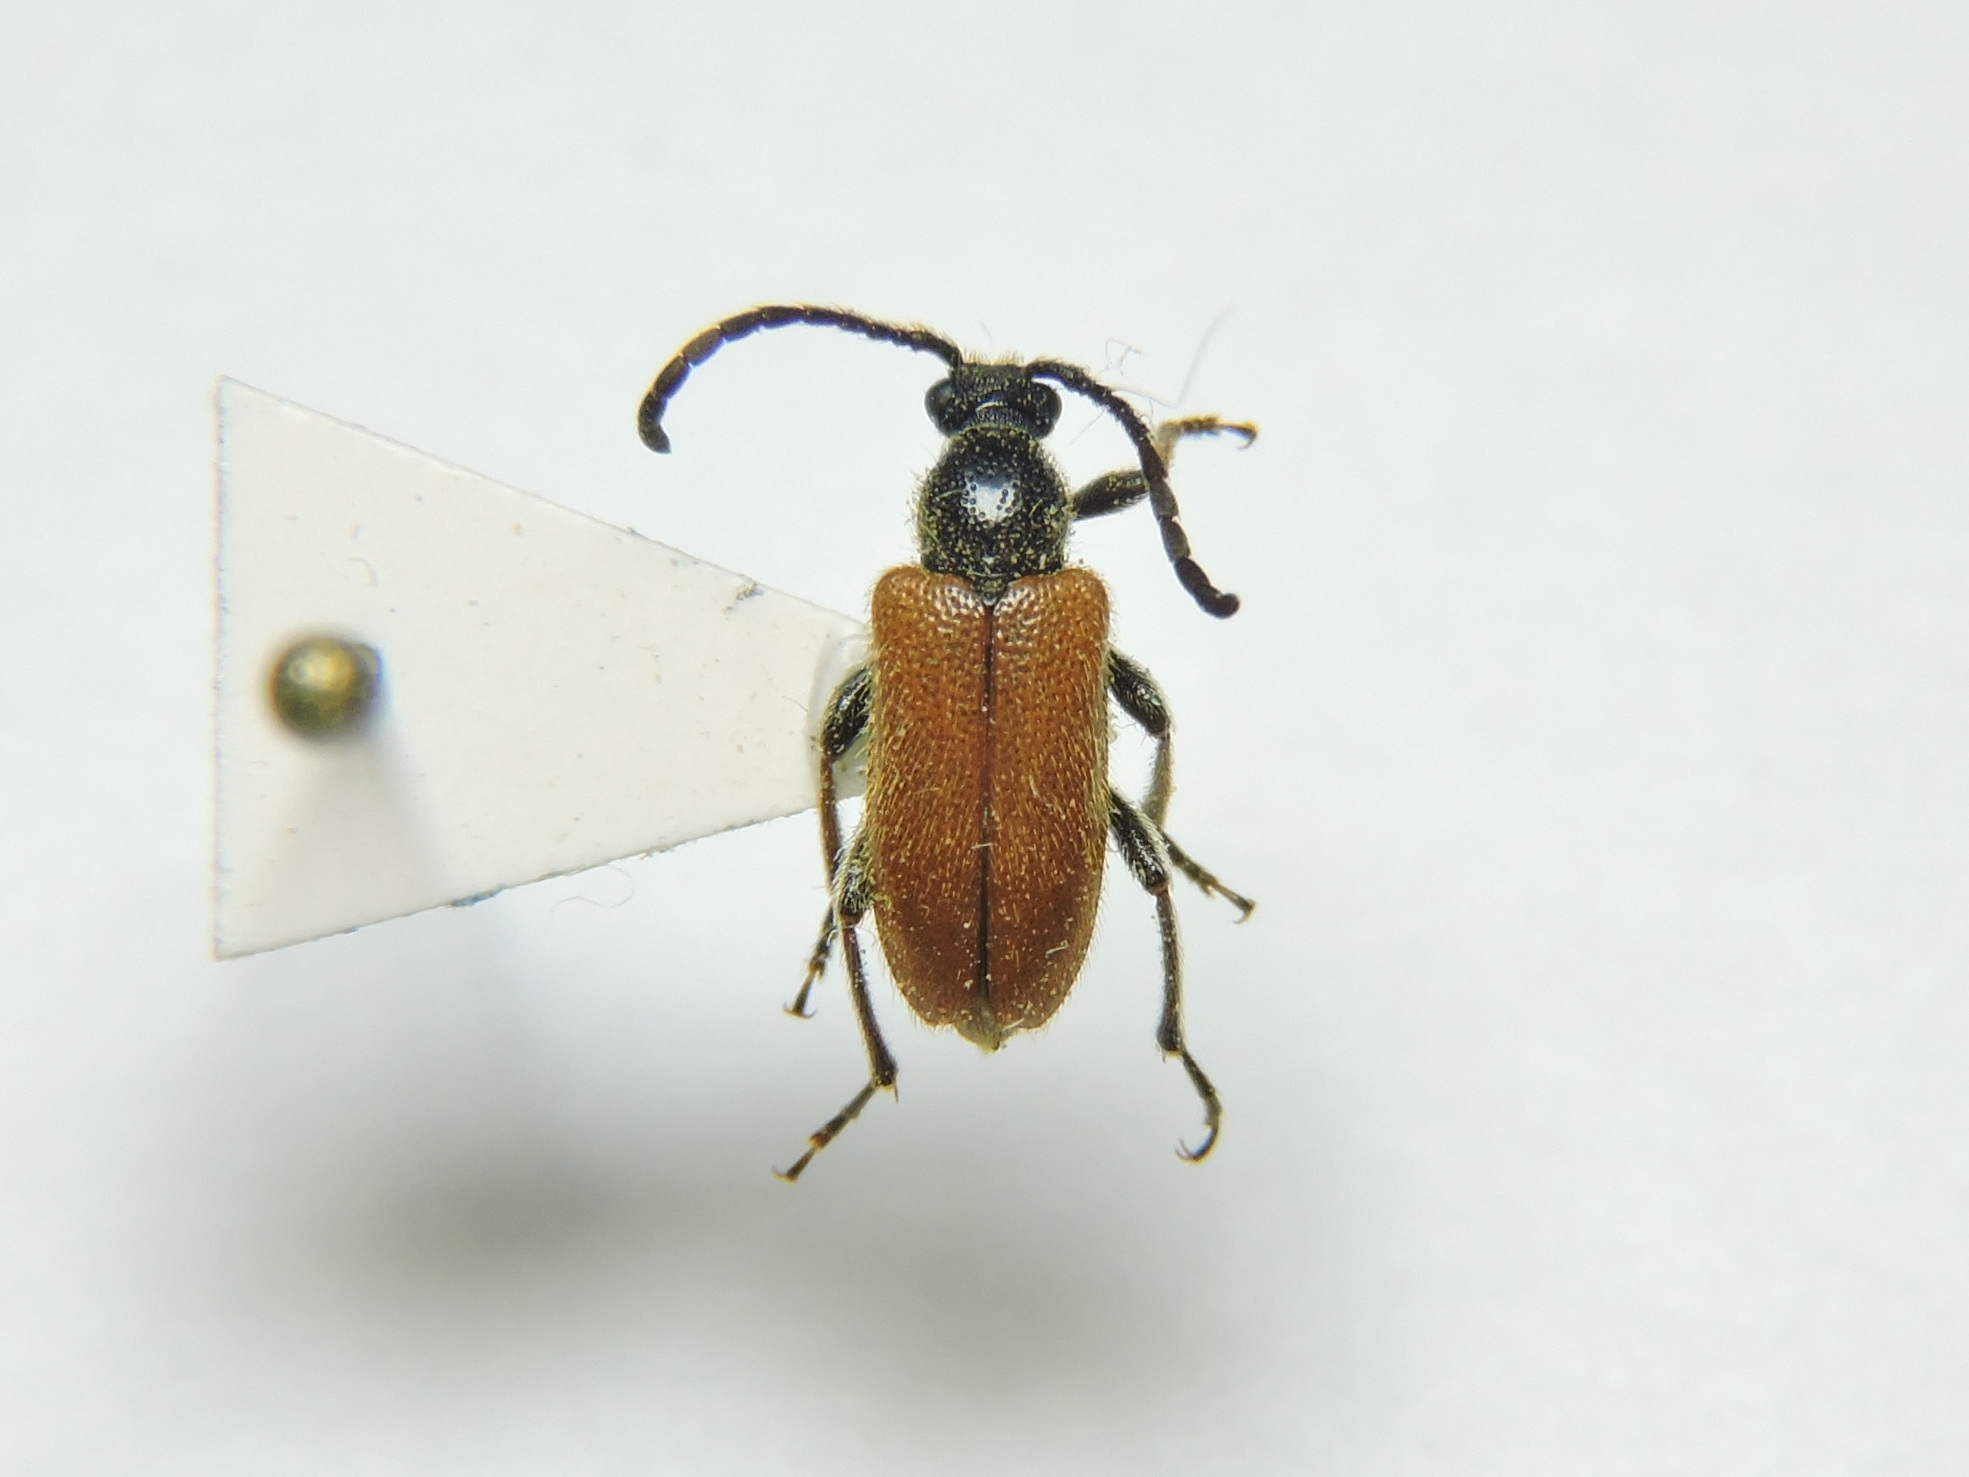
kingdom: Animalia
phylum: Arthropoda
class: Insecta
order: Coleoptera
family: Cerambycidae
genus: Pseudovadonia
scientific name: Pseudovadonia livida
